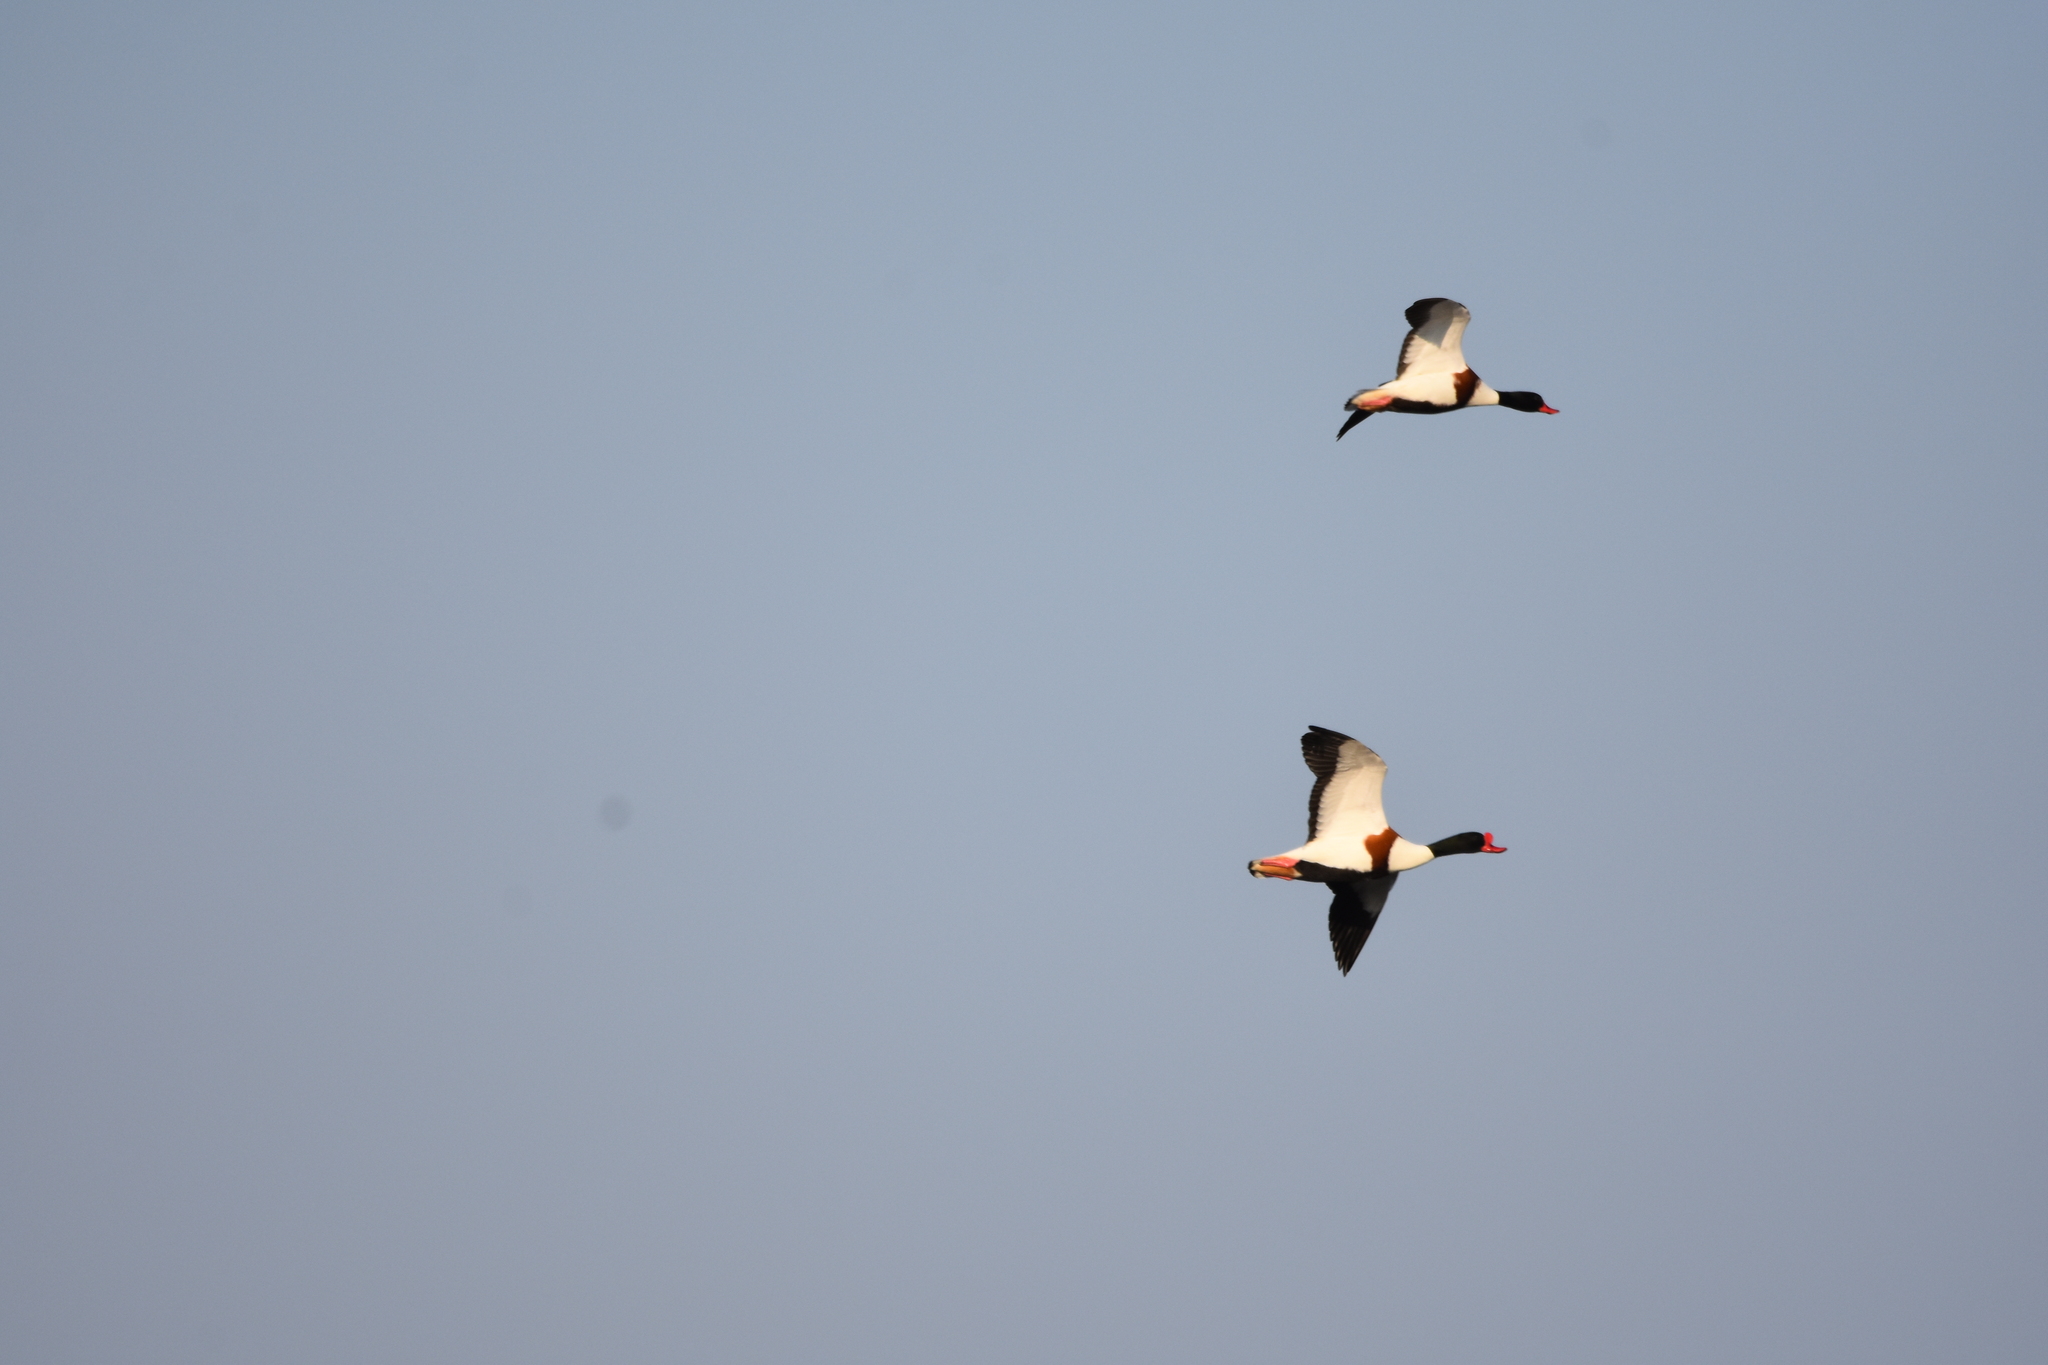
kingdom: Animalia
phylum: Chordata
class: Aves
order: Anseriformes
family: Anatidae
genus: Tadorna
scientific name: Tadorna tadorna
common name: Common shelduck
